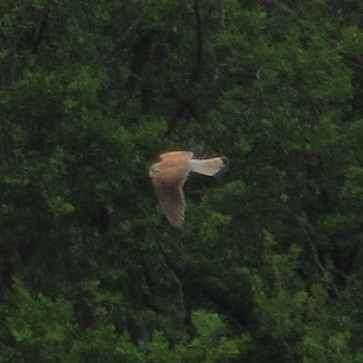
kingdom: Animalia
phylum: Chordata
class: Aves
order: Falconiformes
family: Falconidae
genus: Falco
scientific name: Falco tinnunculus
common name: Common kestrel
